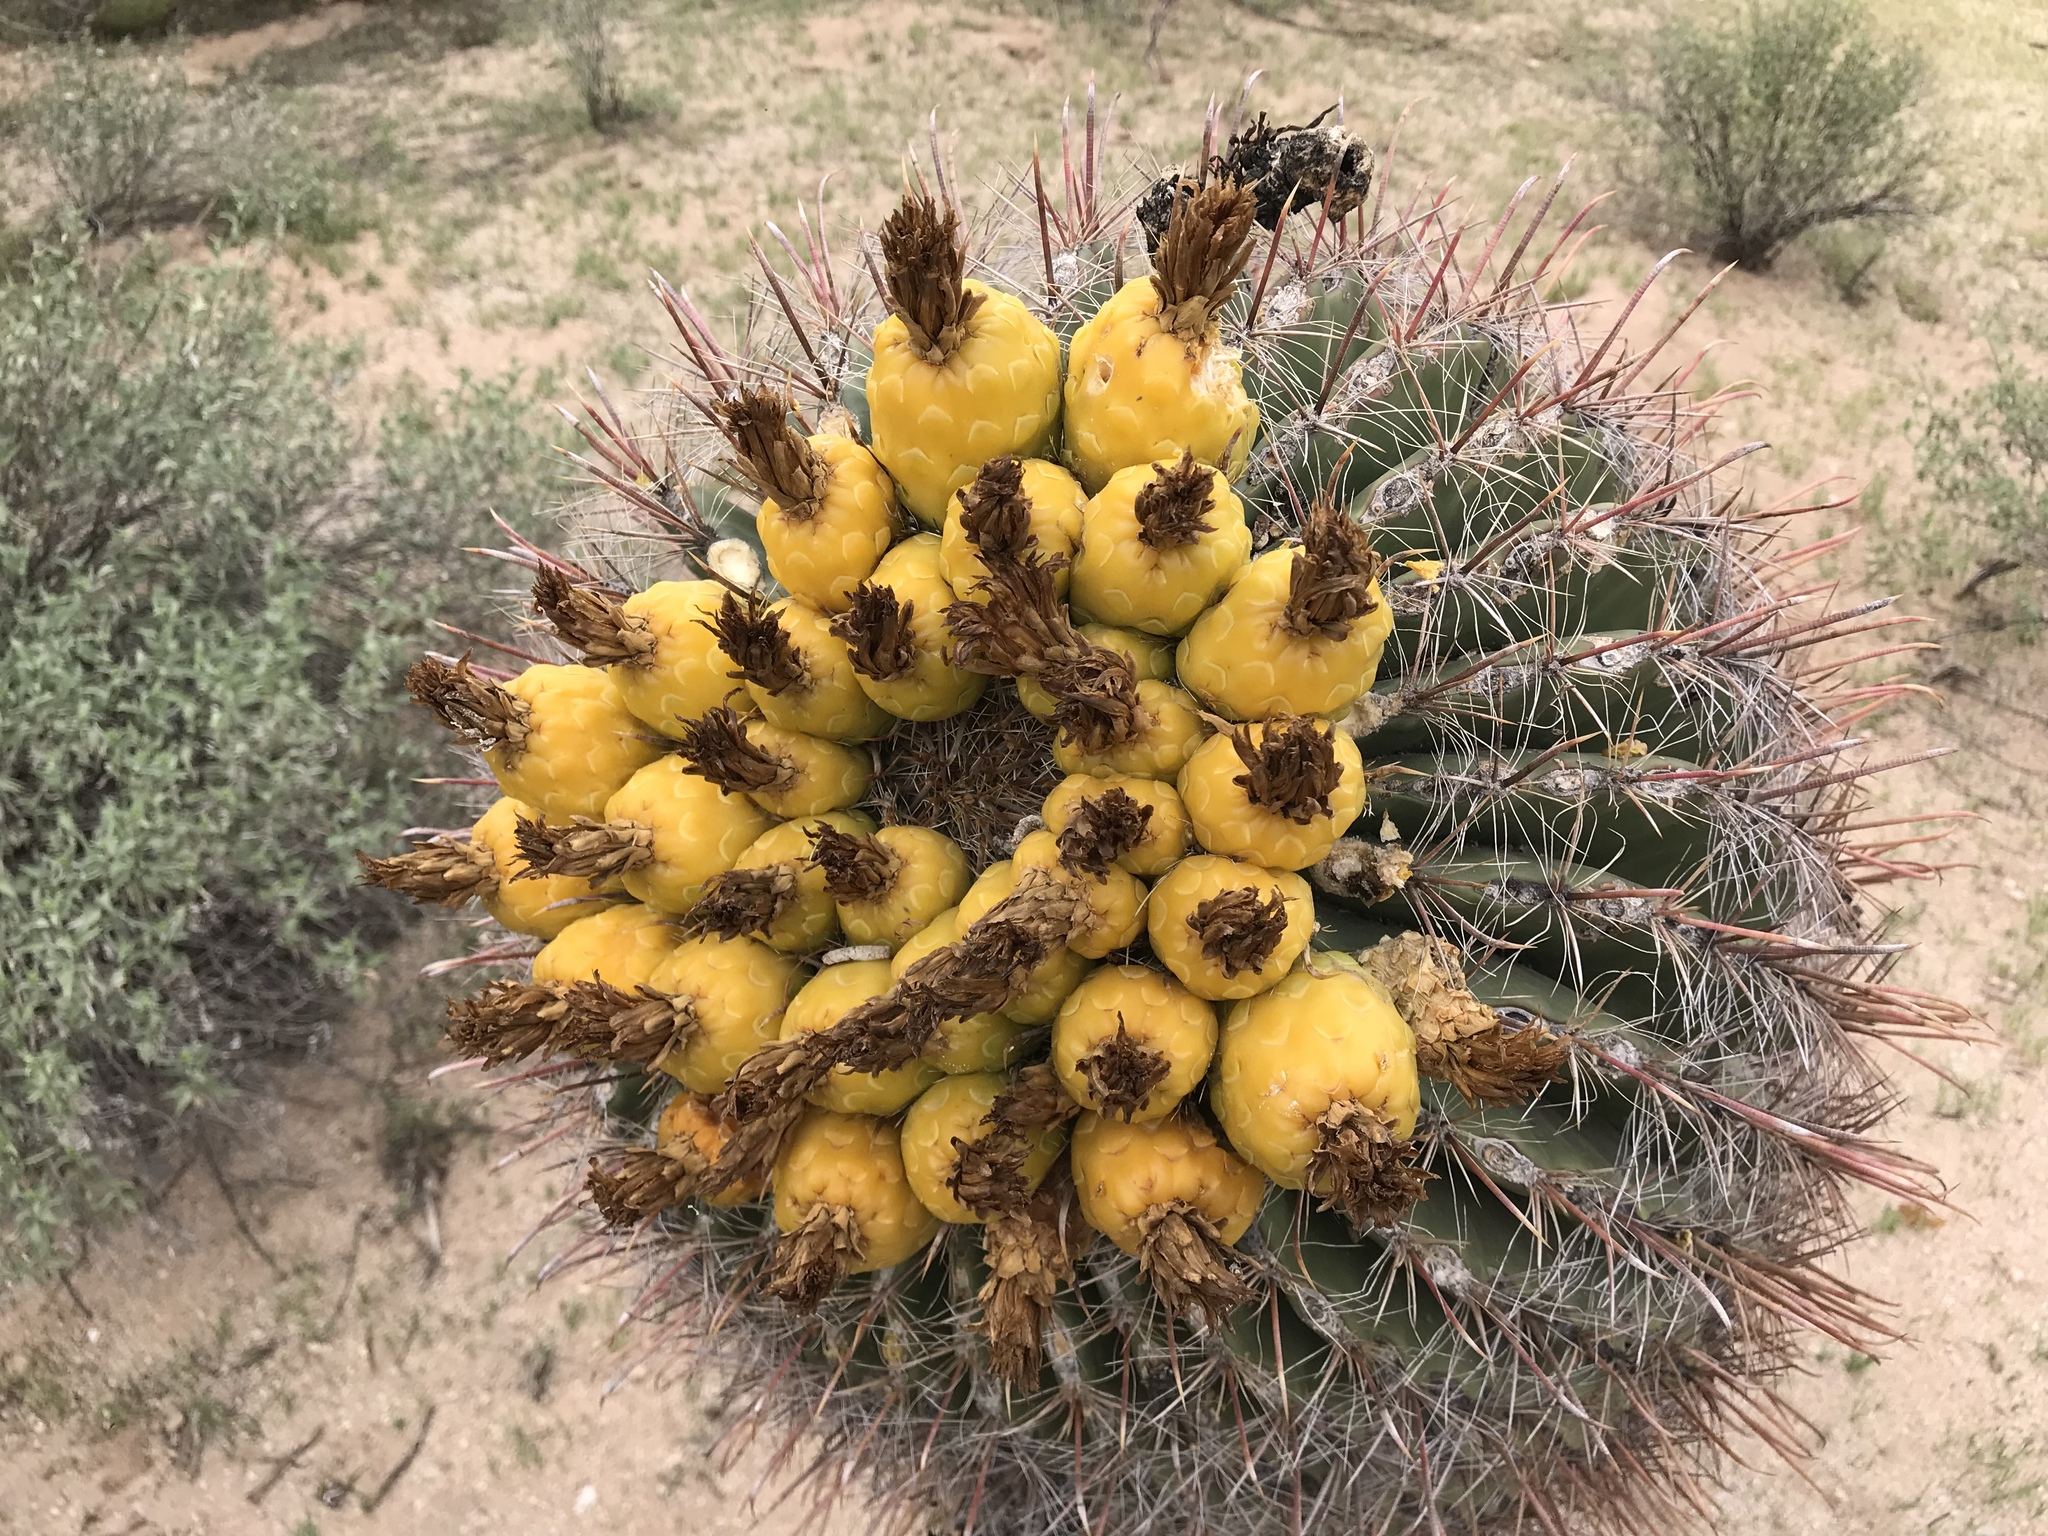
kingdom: Plantae
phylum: Tracheophyta
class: Magnoliopsida
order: Caryophyllales
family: Cactaceae
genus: Ferocactus
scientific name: Ferocactus wislizeni
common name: Candy barrel cactus
